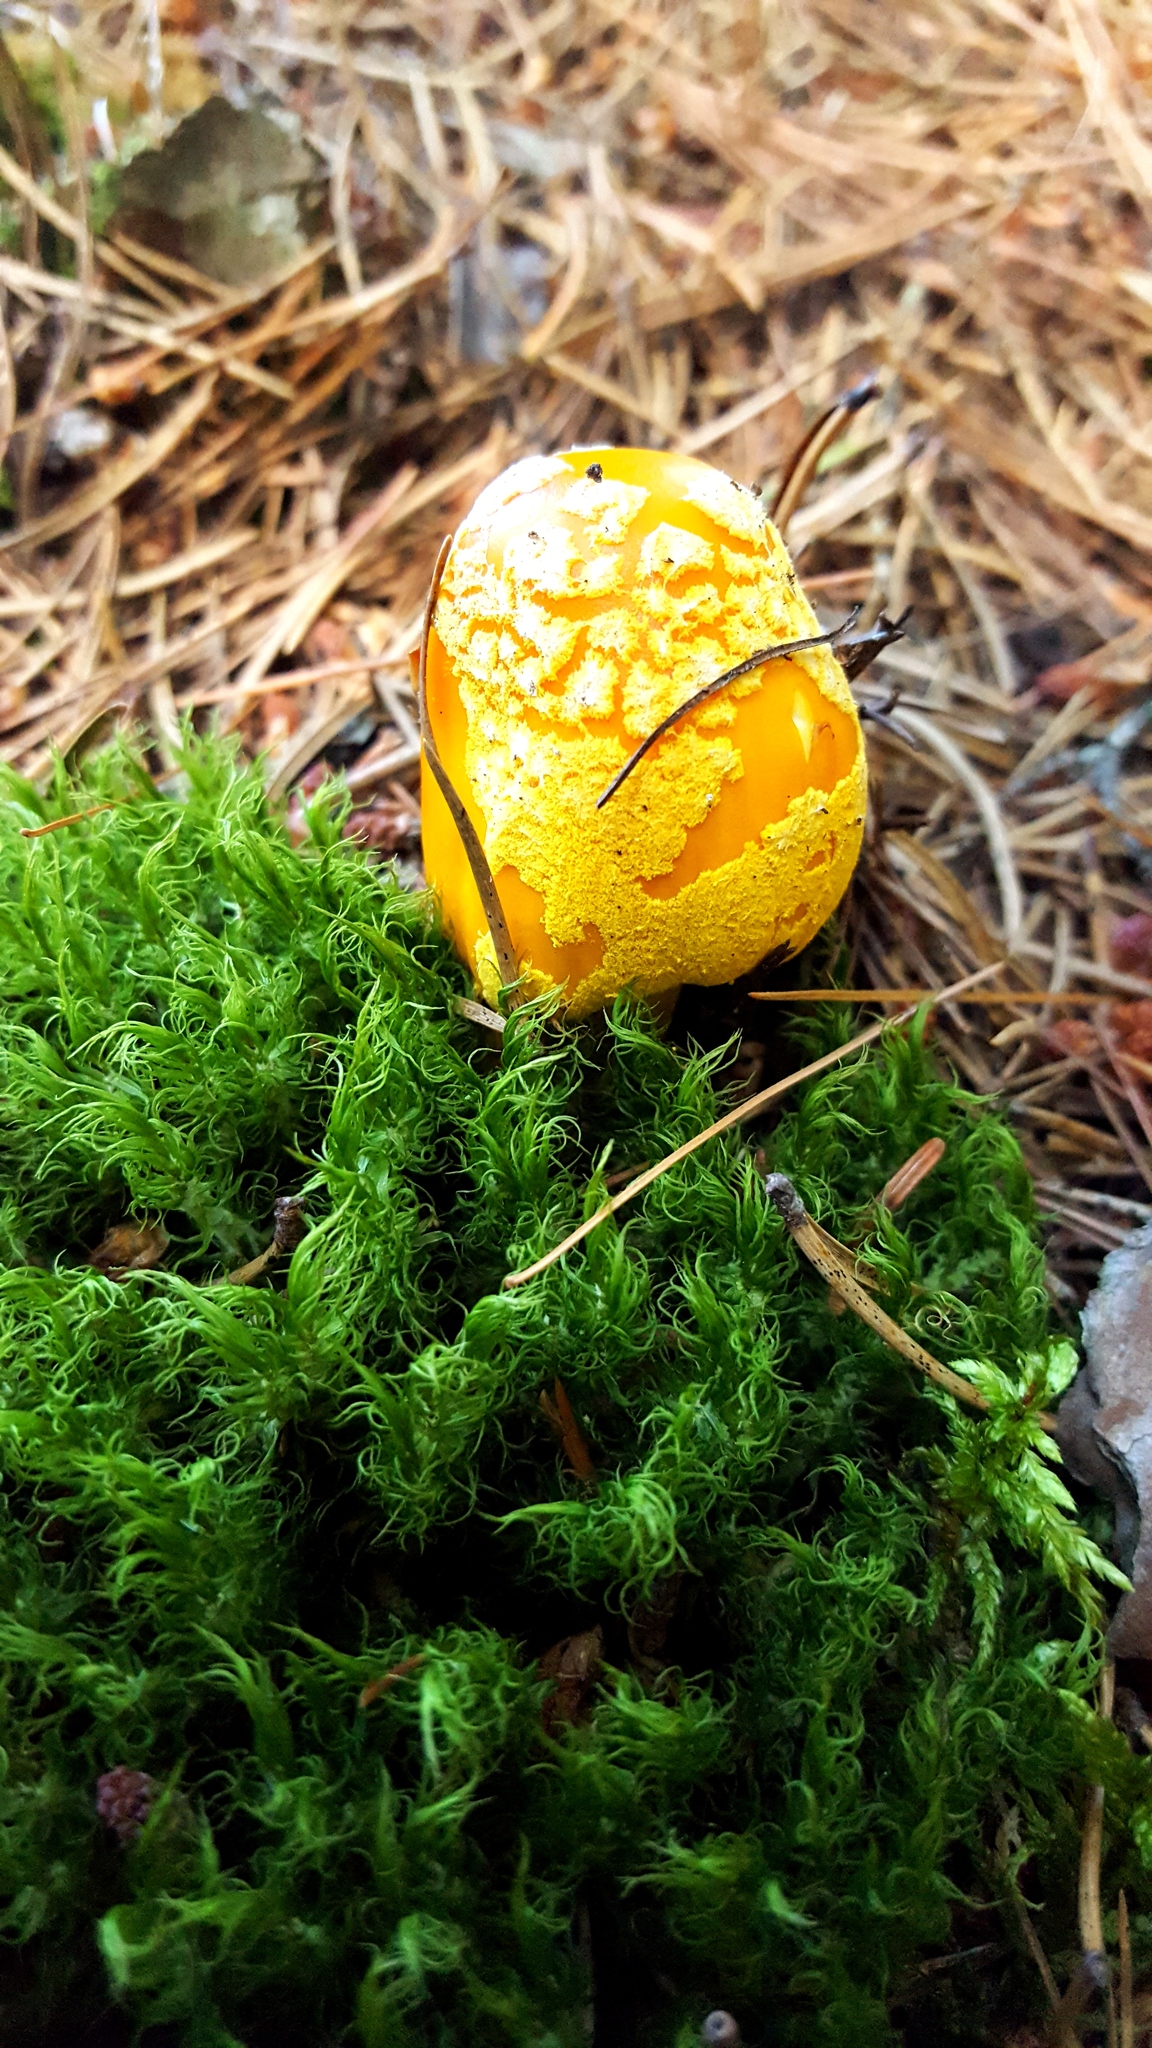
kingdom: Fungi
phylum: Basidiomycota
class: Agaricomycetes
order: Agaricales
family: Amanitaceae
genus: Amanita
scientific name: Amanita flavoconia
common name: Yellow patches
